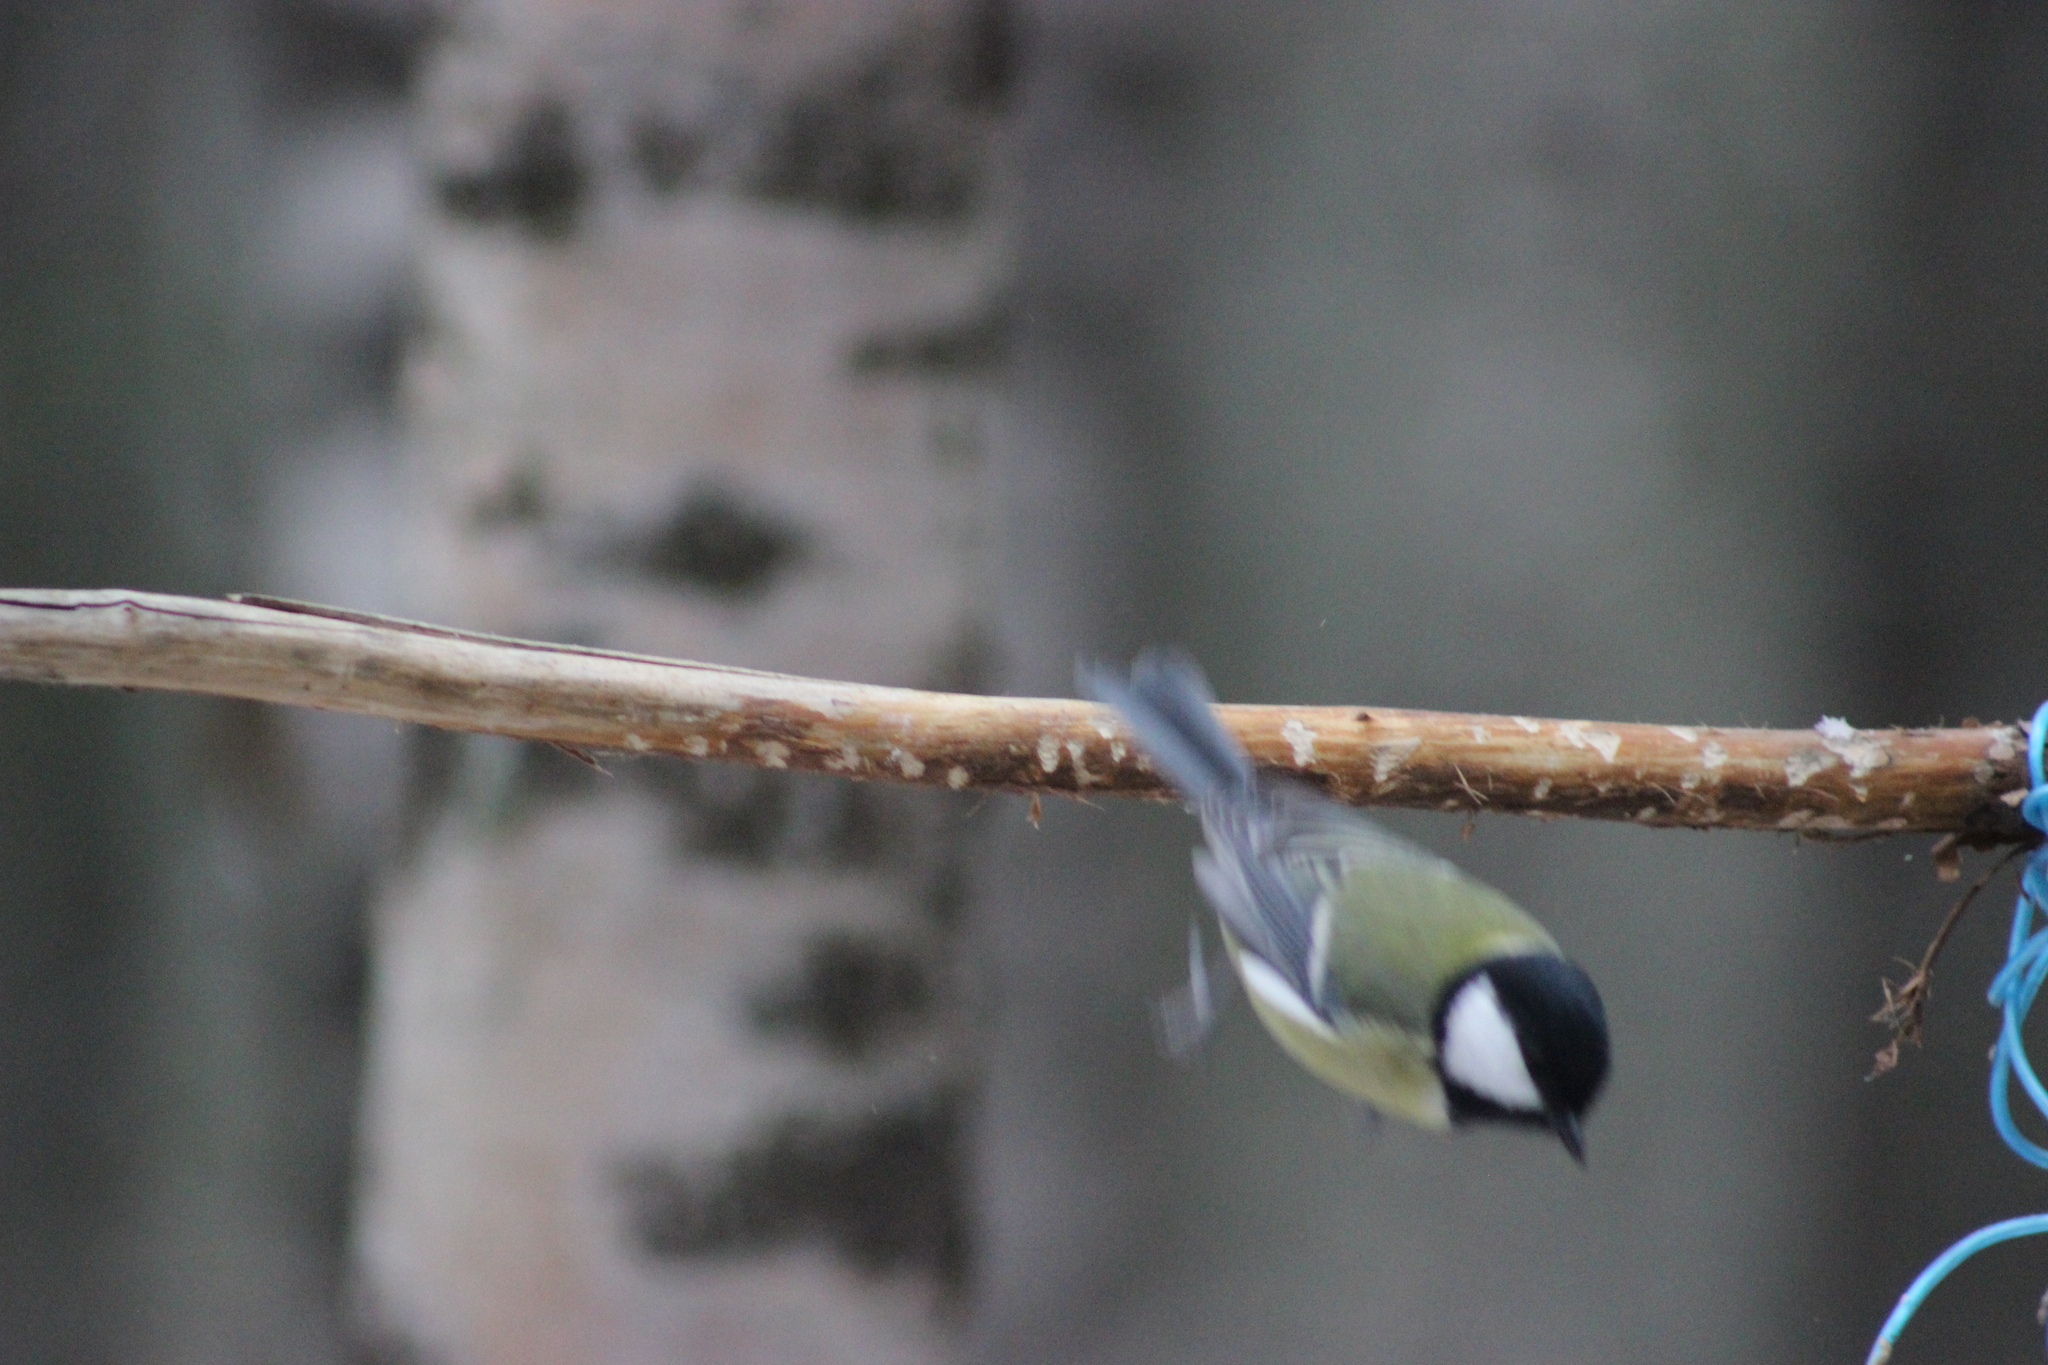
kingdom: Animalia
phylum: Chordata
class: Aves
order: Passeriformes
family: Paridae
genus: Parus
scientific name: Parus major
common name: Great tit
